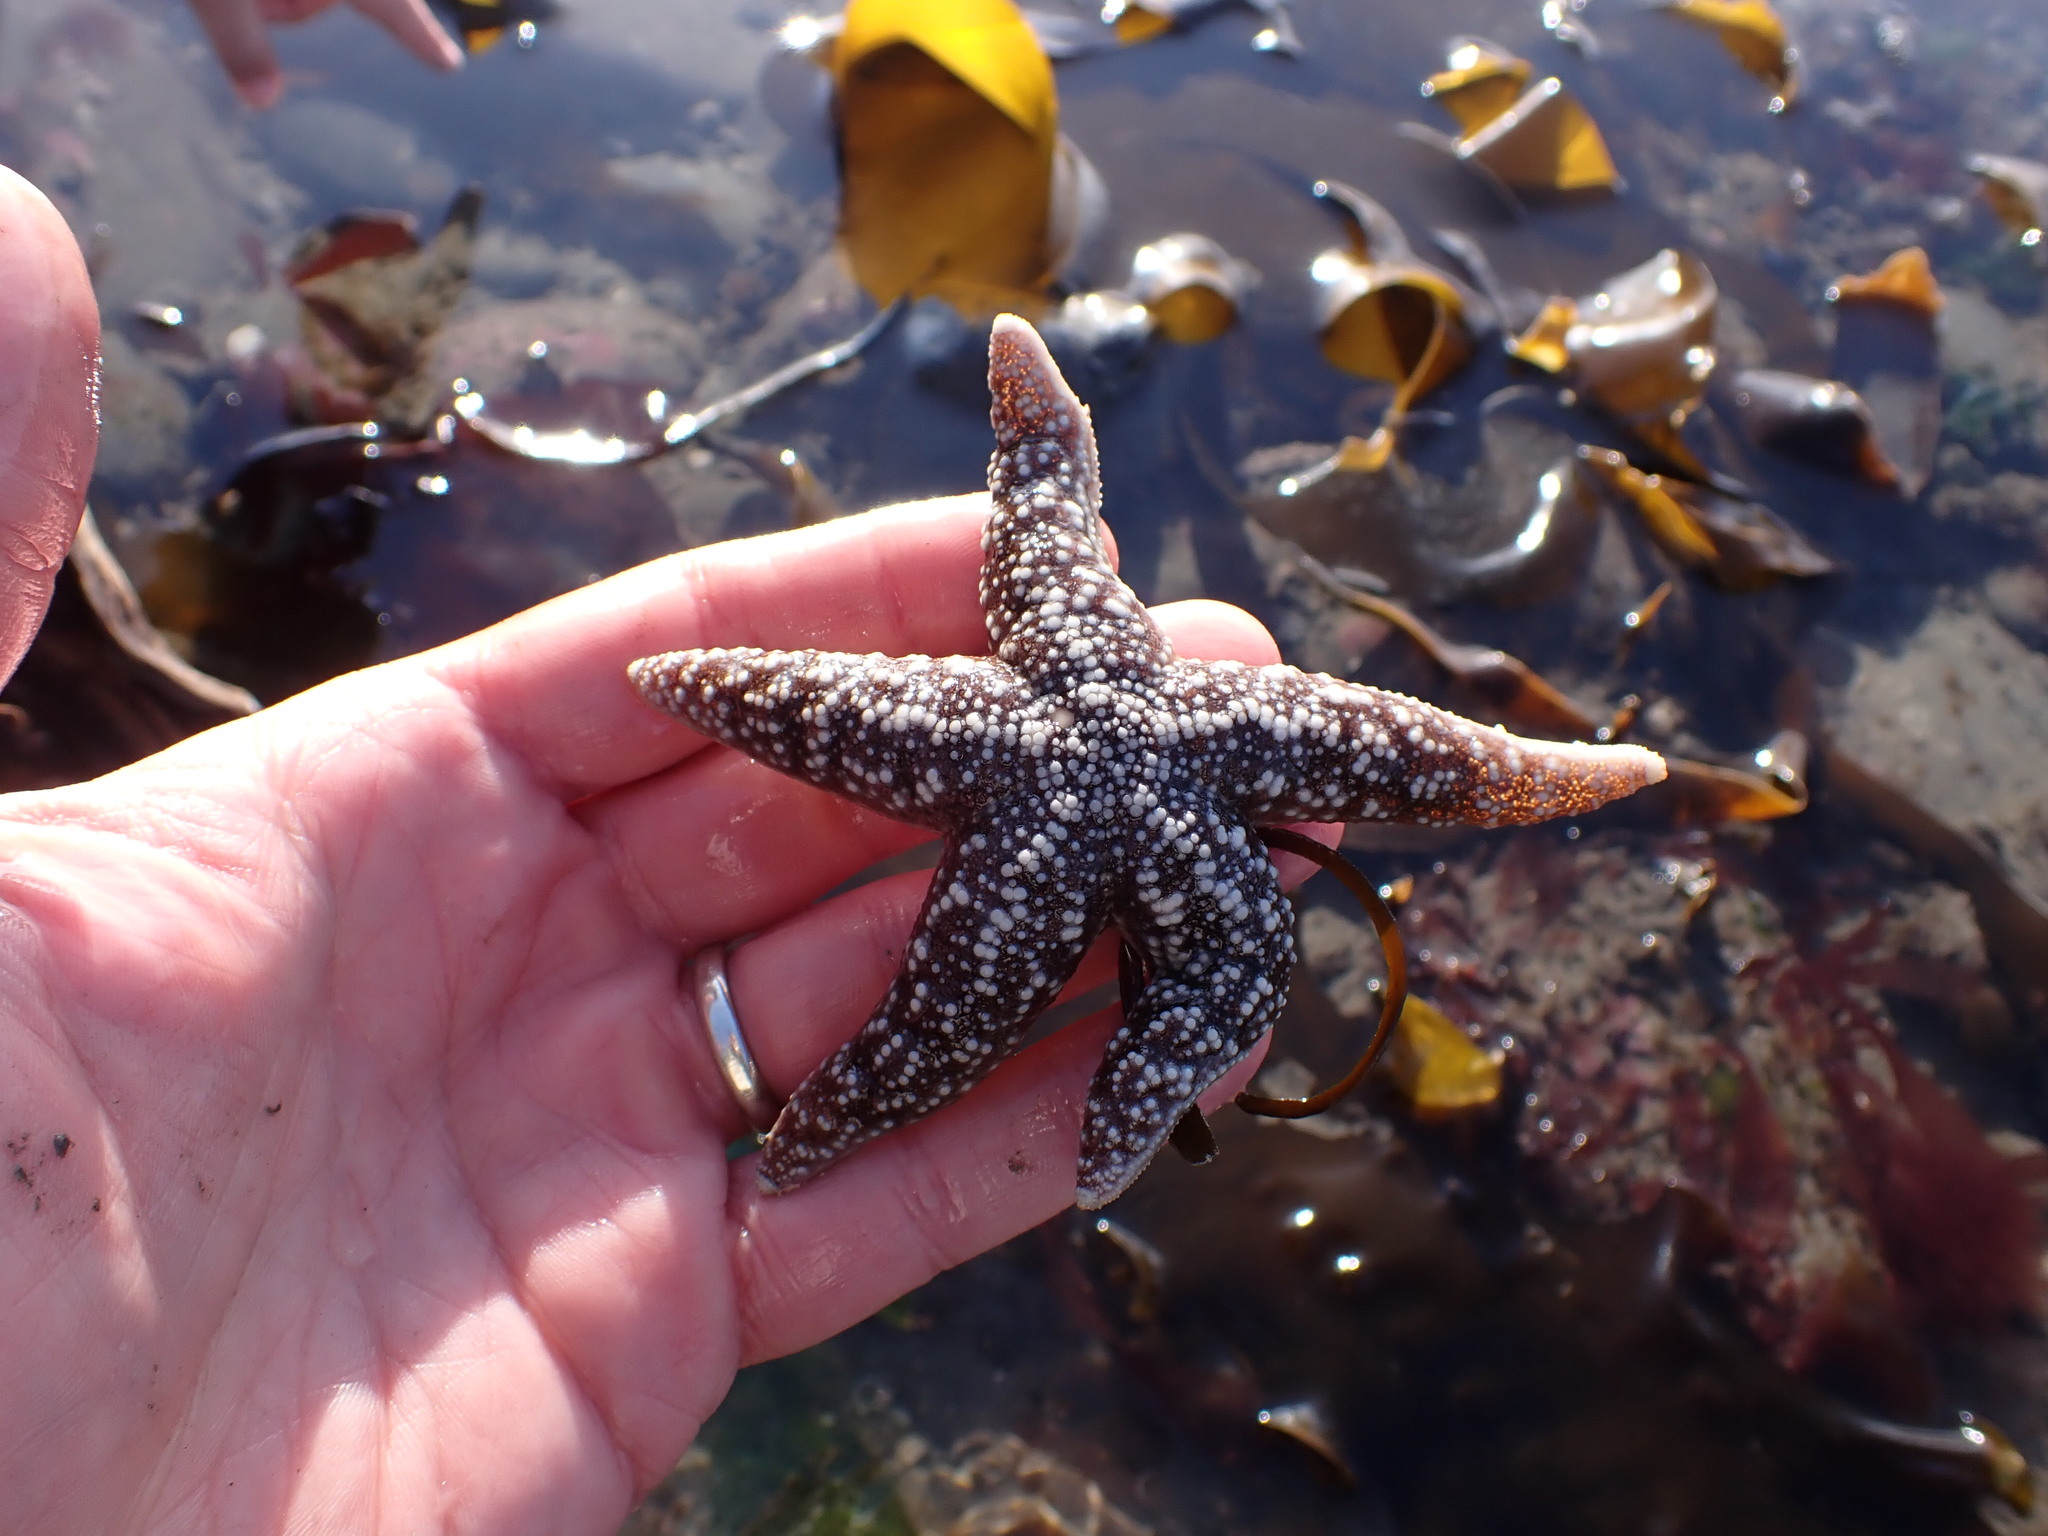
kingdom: Animalia
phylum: Echinodermata
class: Asteroidea
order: Forcipulatida
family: Asteriidae
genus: Evasterias
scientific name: Evasterias troschelii
